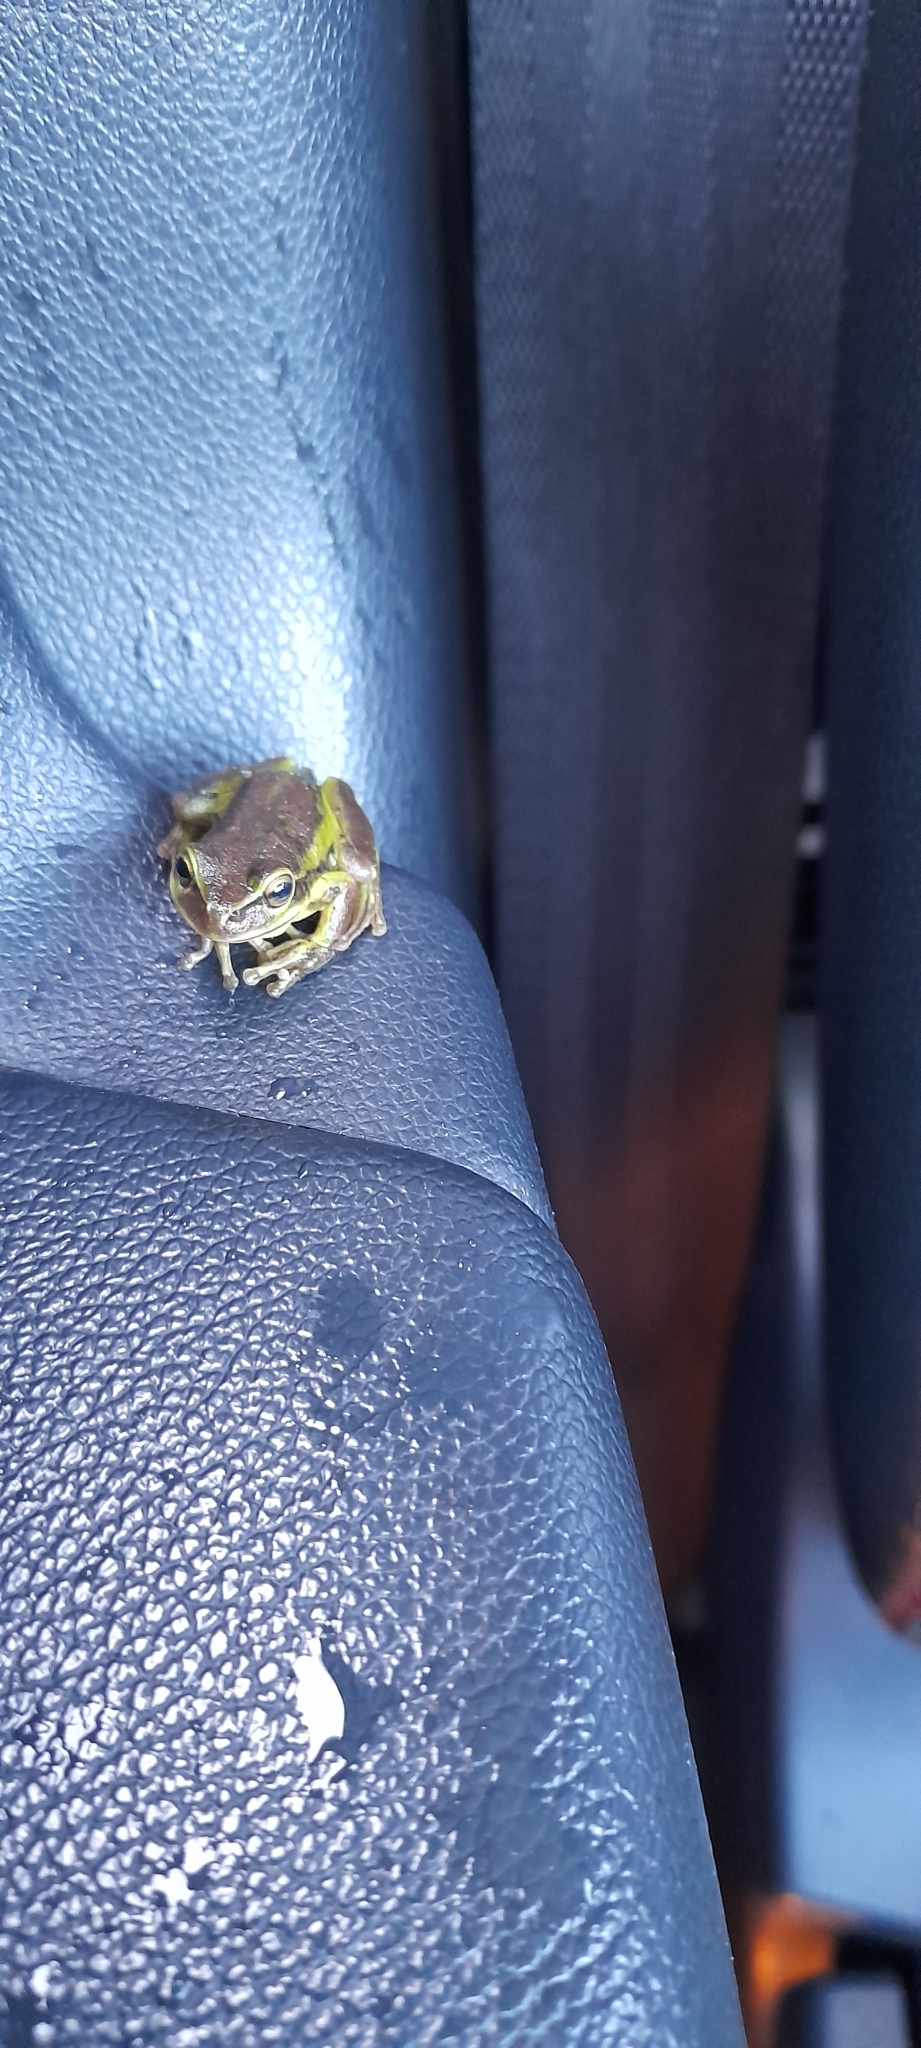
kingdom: Animalia
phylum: Chordata
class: Amphibia
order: Anura
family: Hylidae
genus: Dendropsophus
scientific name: Dendropsophus molitor
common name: Green dotted treefrog
